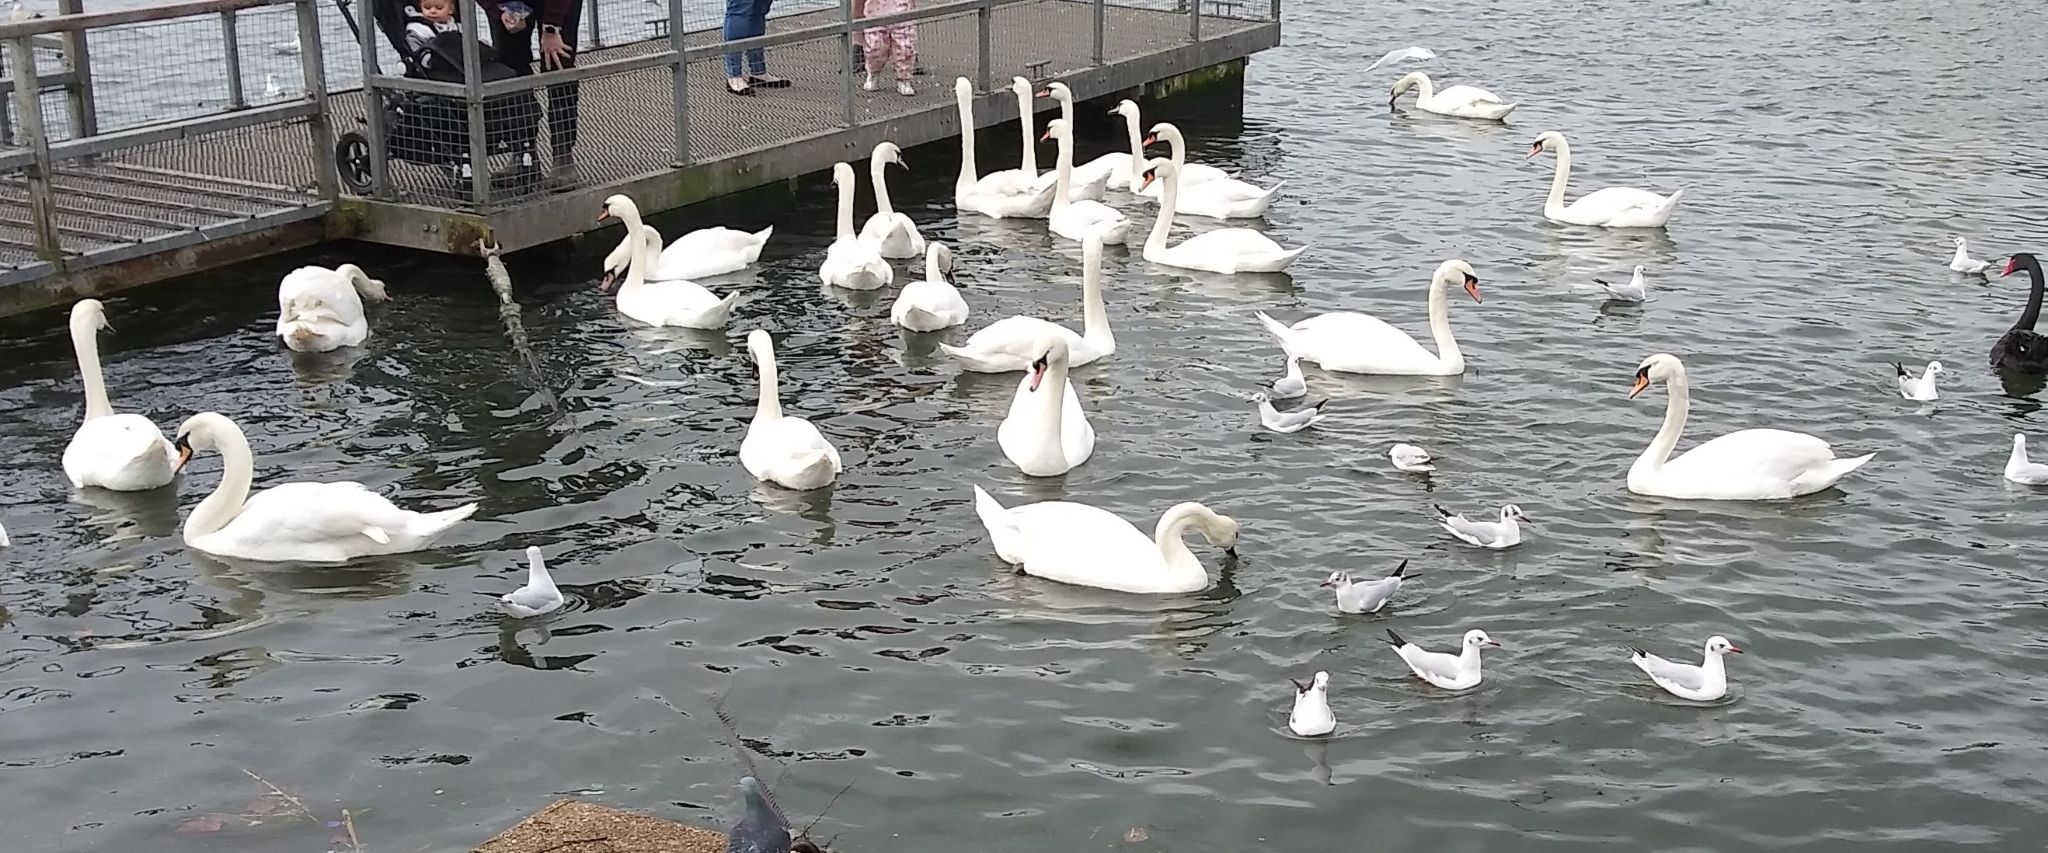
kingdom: Animalia
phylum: Chordata
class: Aves
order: Anseriformes
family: Anatidae
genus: Cygnus
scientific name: Cygnus olor
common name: Mute swan
